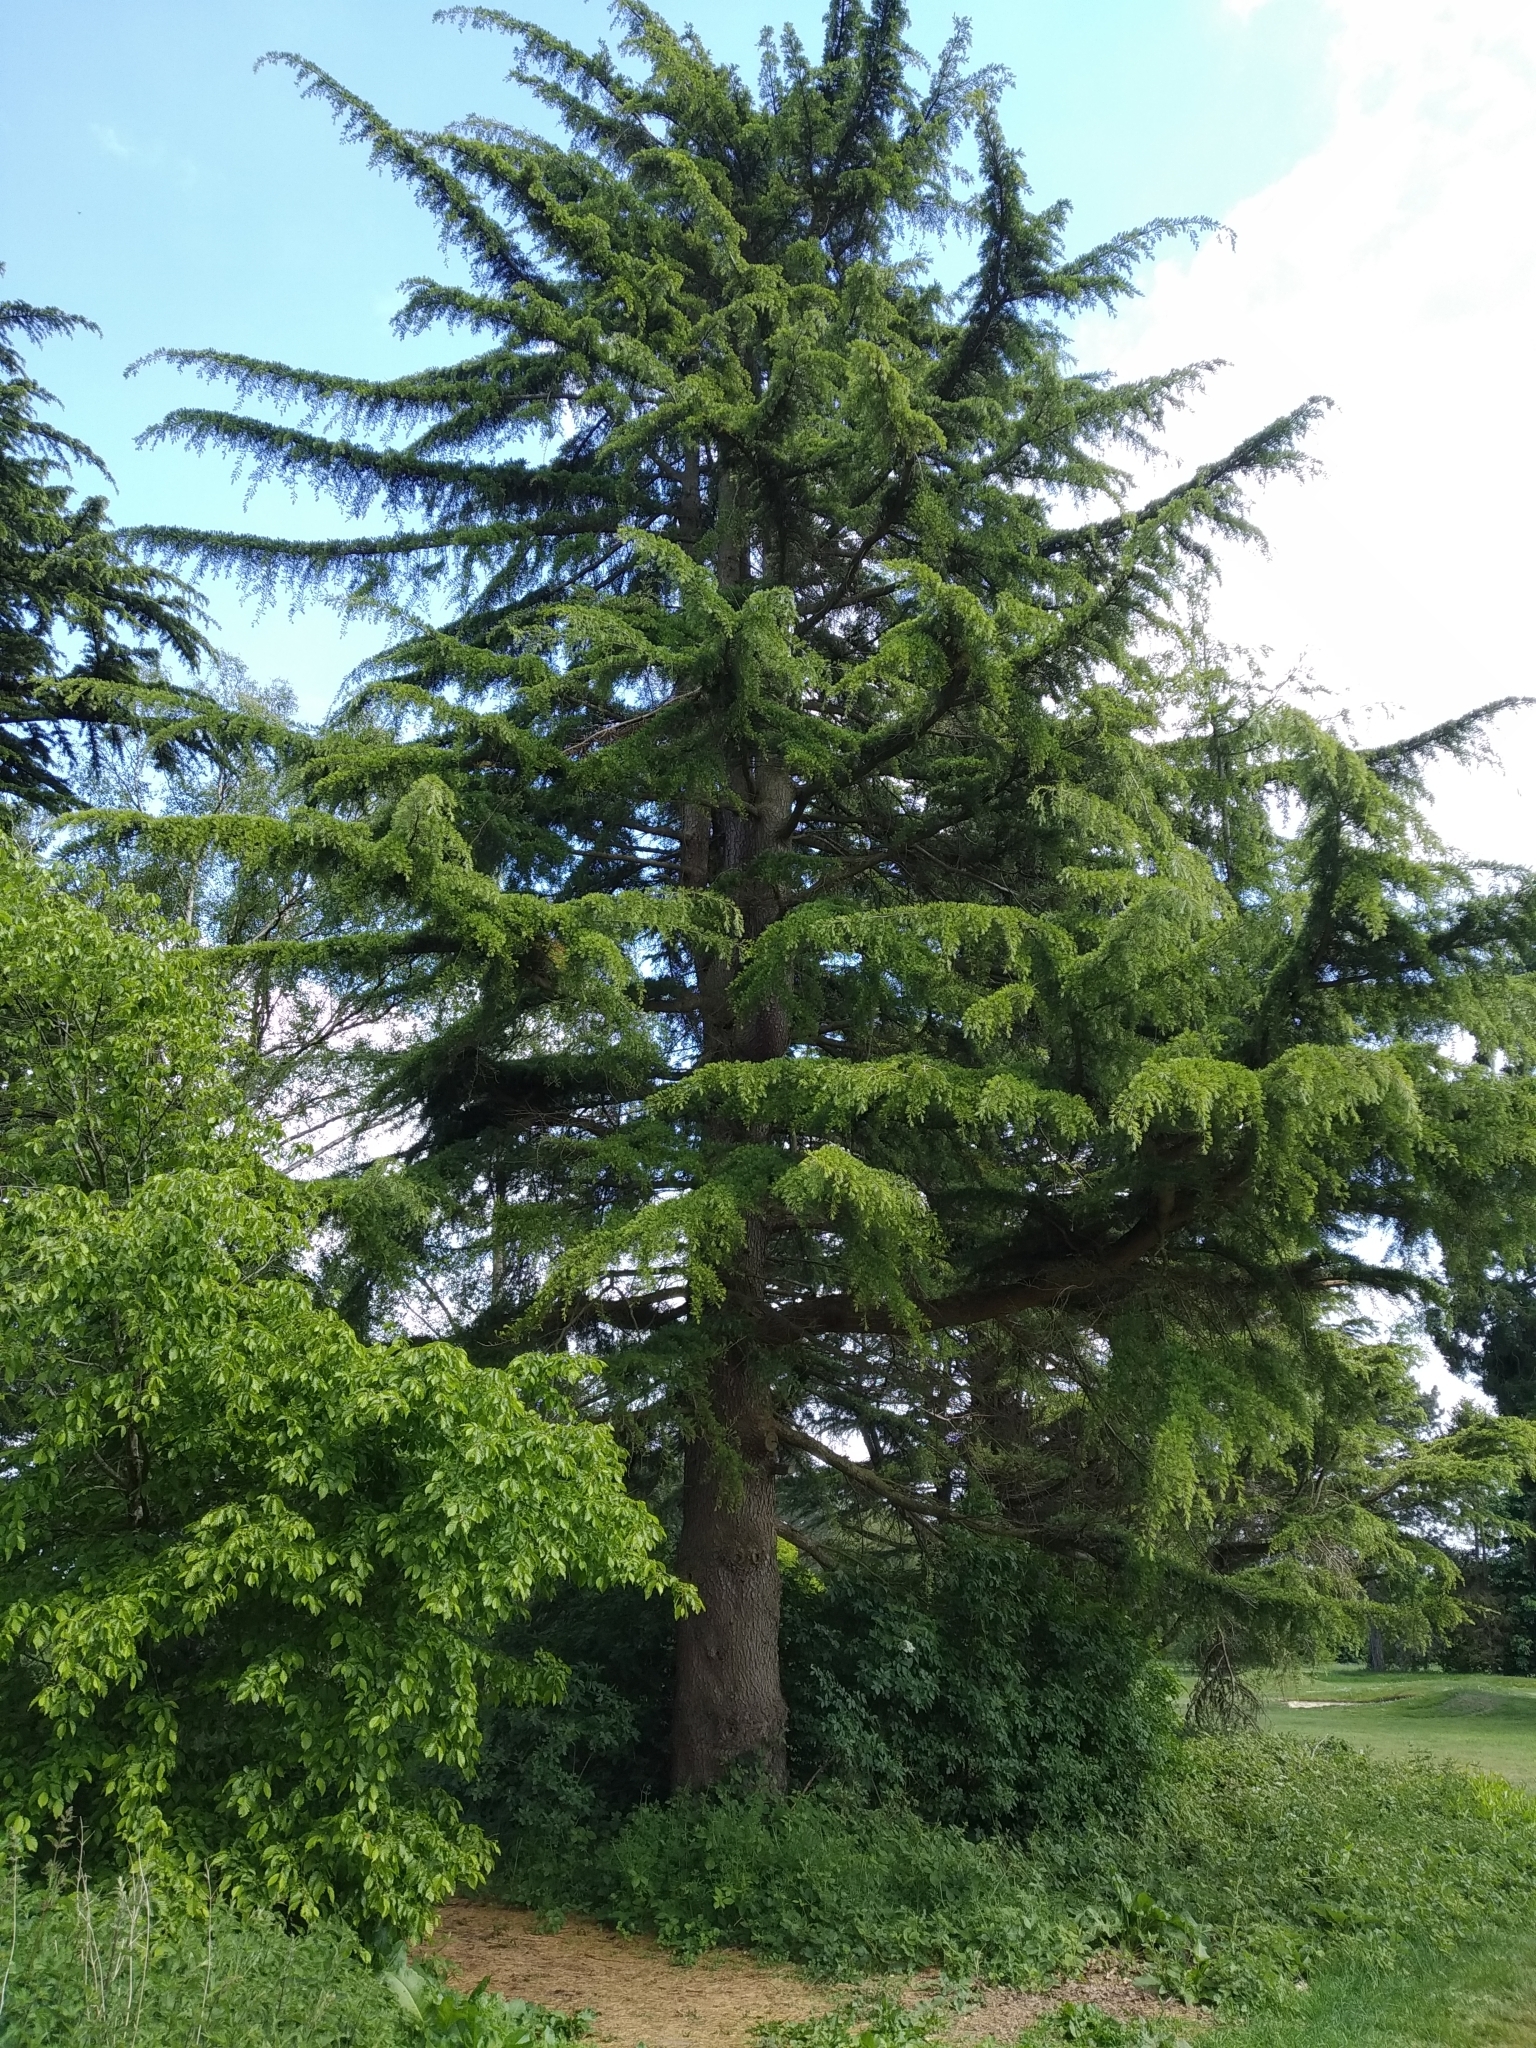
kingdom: Plantae
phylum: Tracheophyta
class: Pinopsida
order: Pinales
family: Pinaceae
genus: Larix
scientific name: Larix decidua
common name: European larch
